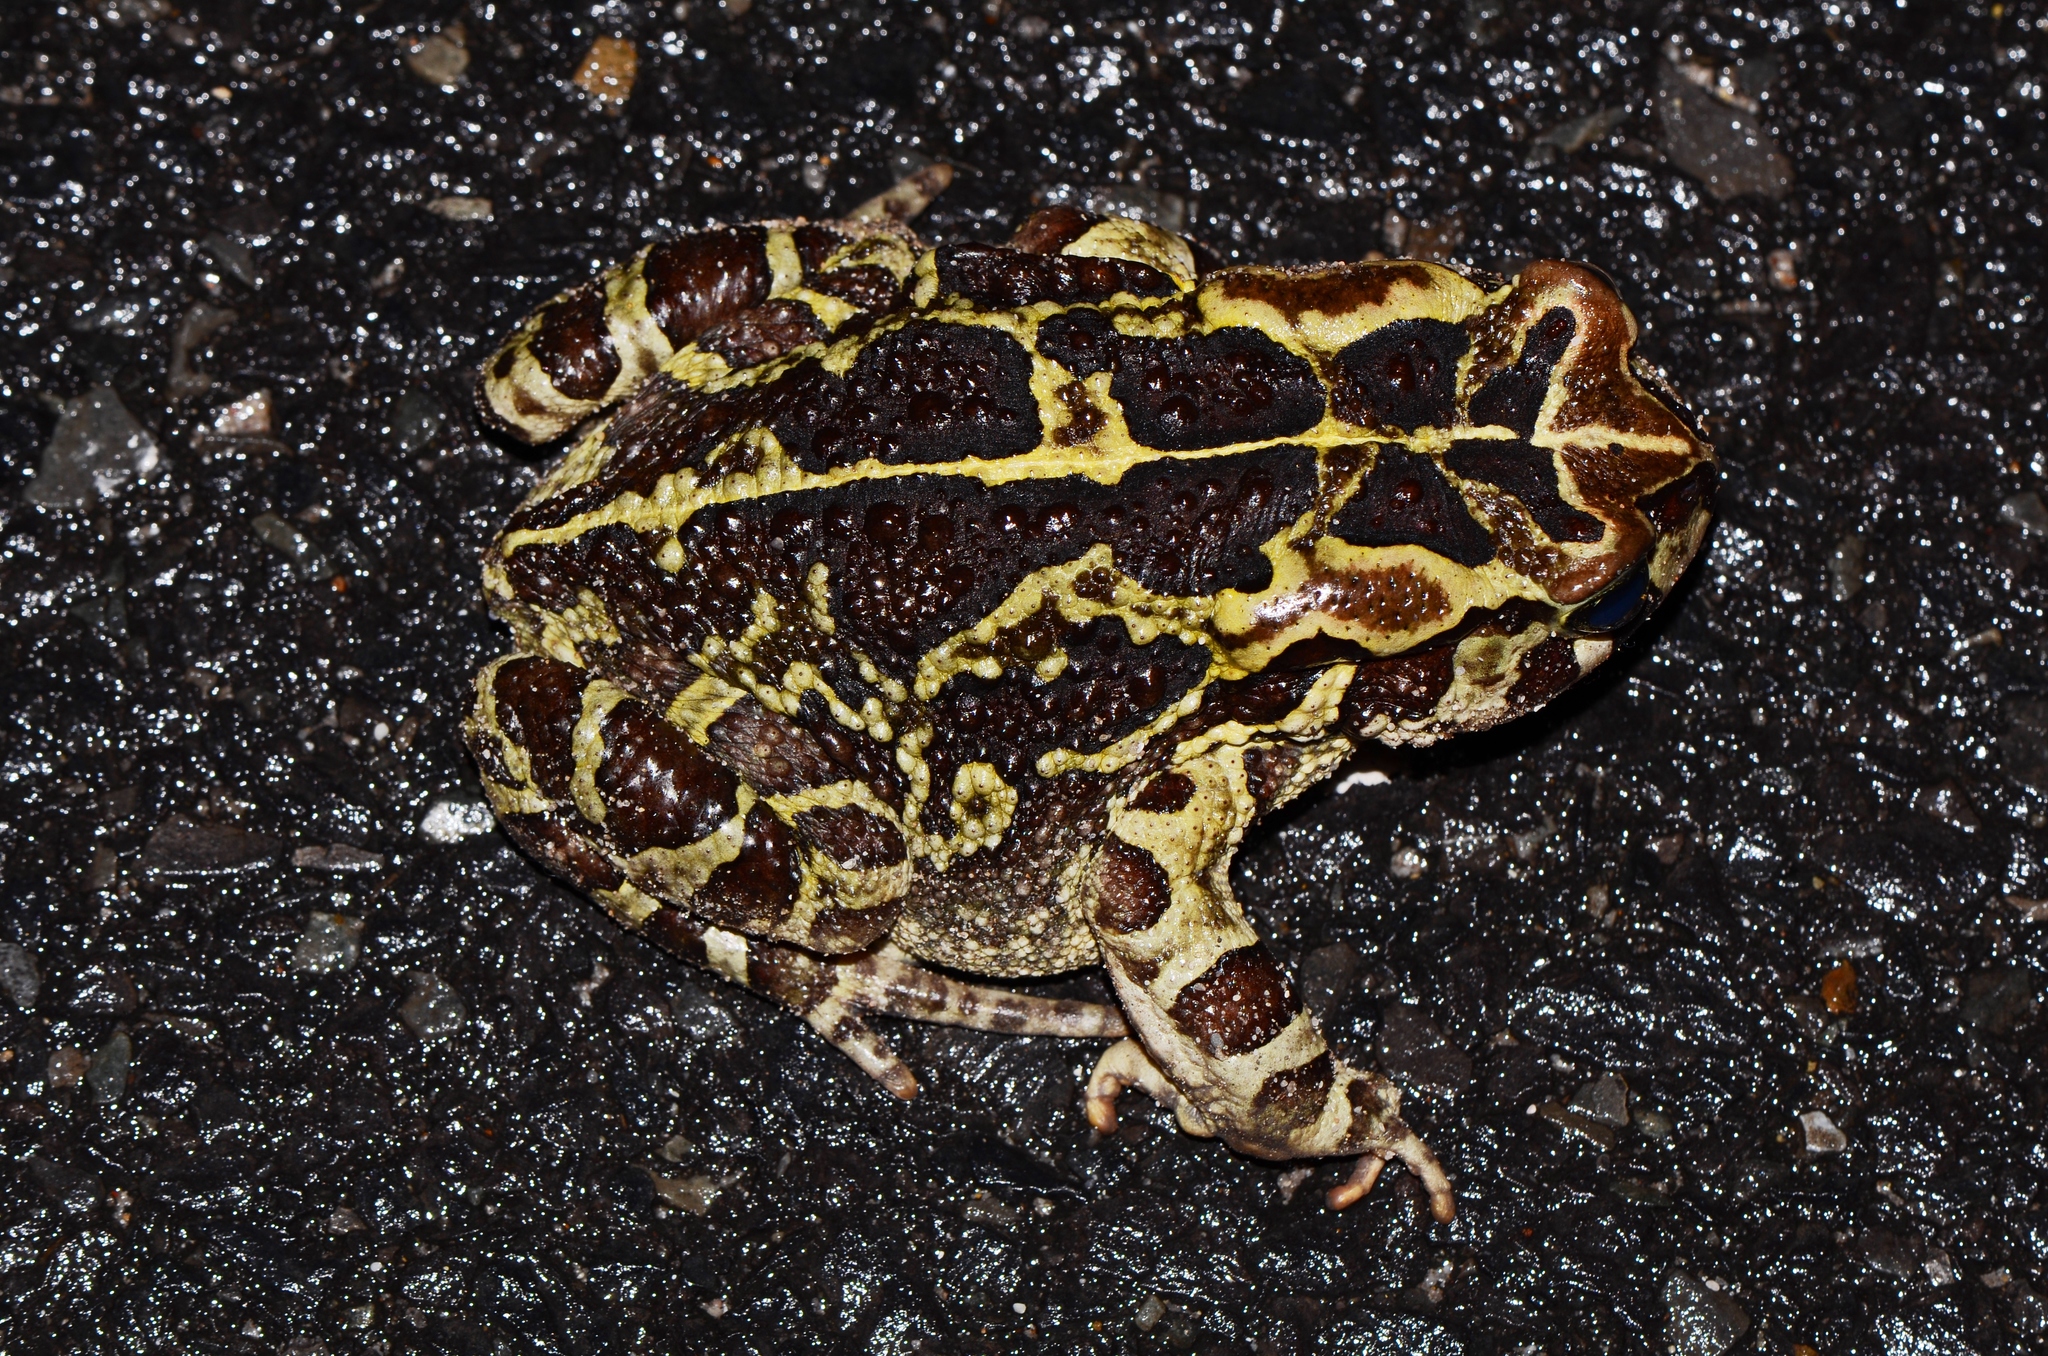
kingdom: Animalia
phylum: Chordata
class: Amphibia
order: Anura
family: Bufonidae
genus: Sclerophrys
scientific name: Sclerophrys pantherina
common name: Panther toad
